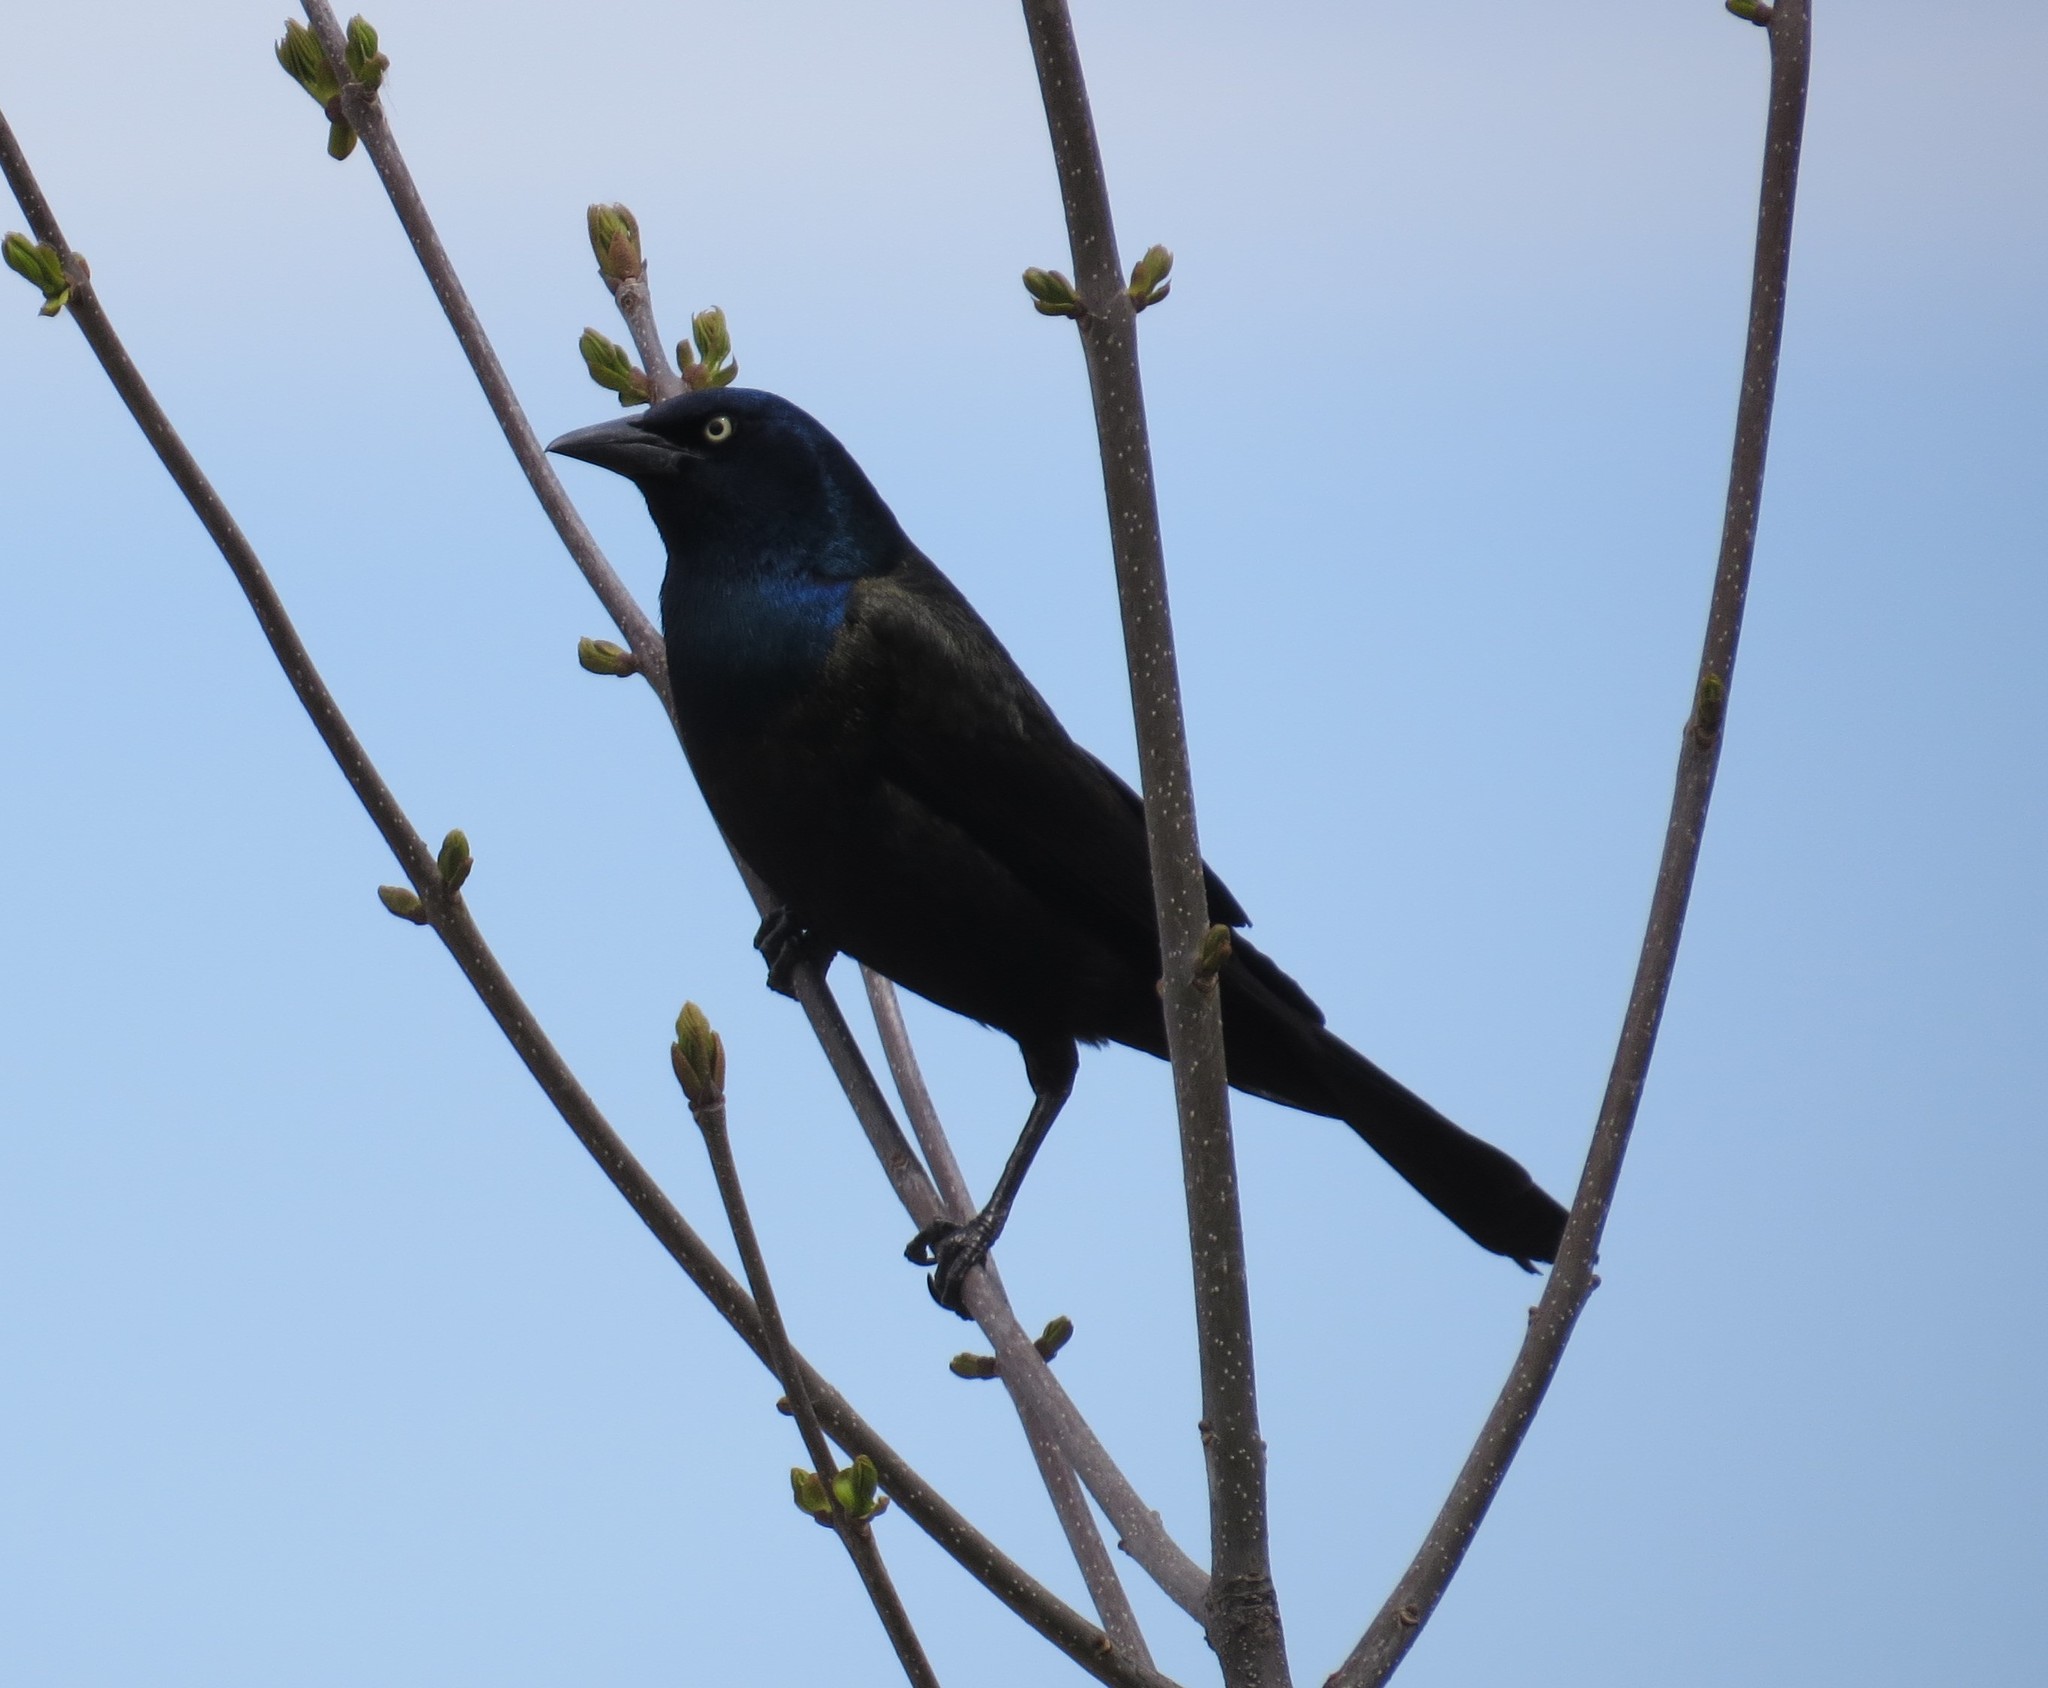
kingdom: Animalia
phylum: Chordata
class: Aves
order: Passeriformes
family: Icteridae
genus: Quiscalus
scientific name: Quiscalus quiscula
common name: Common grackle
